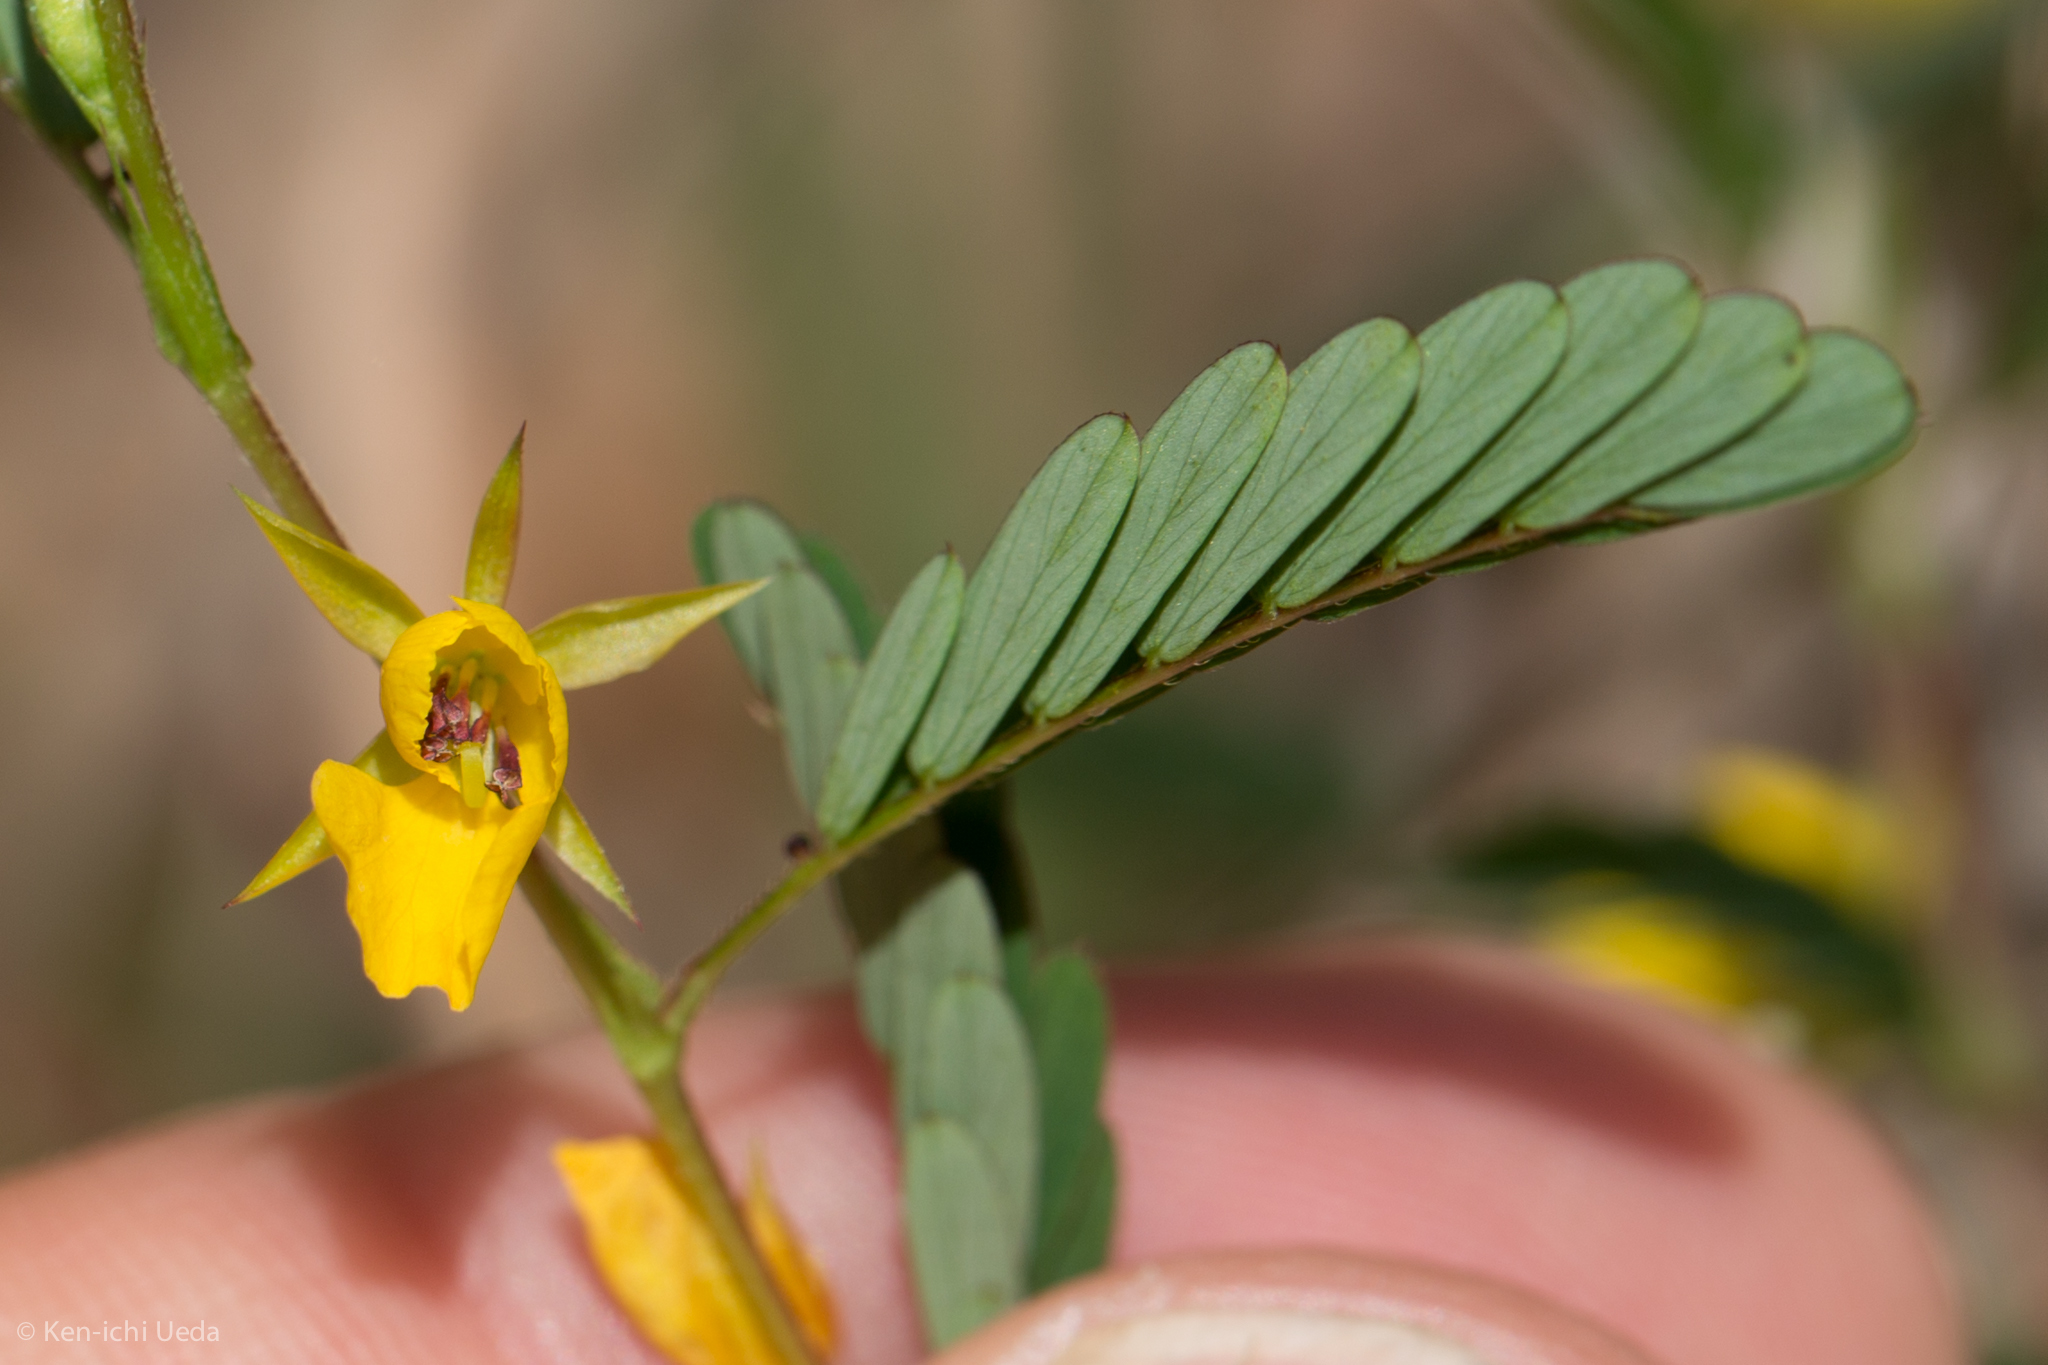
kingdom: Plantae
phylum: Tracheophyta
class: Magnoliopsida
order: Fabales
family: Fabaceae
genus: Chamaecrista
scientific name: Chamaecrista nictitans
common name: Sensitive cassia
